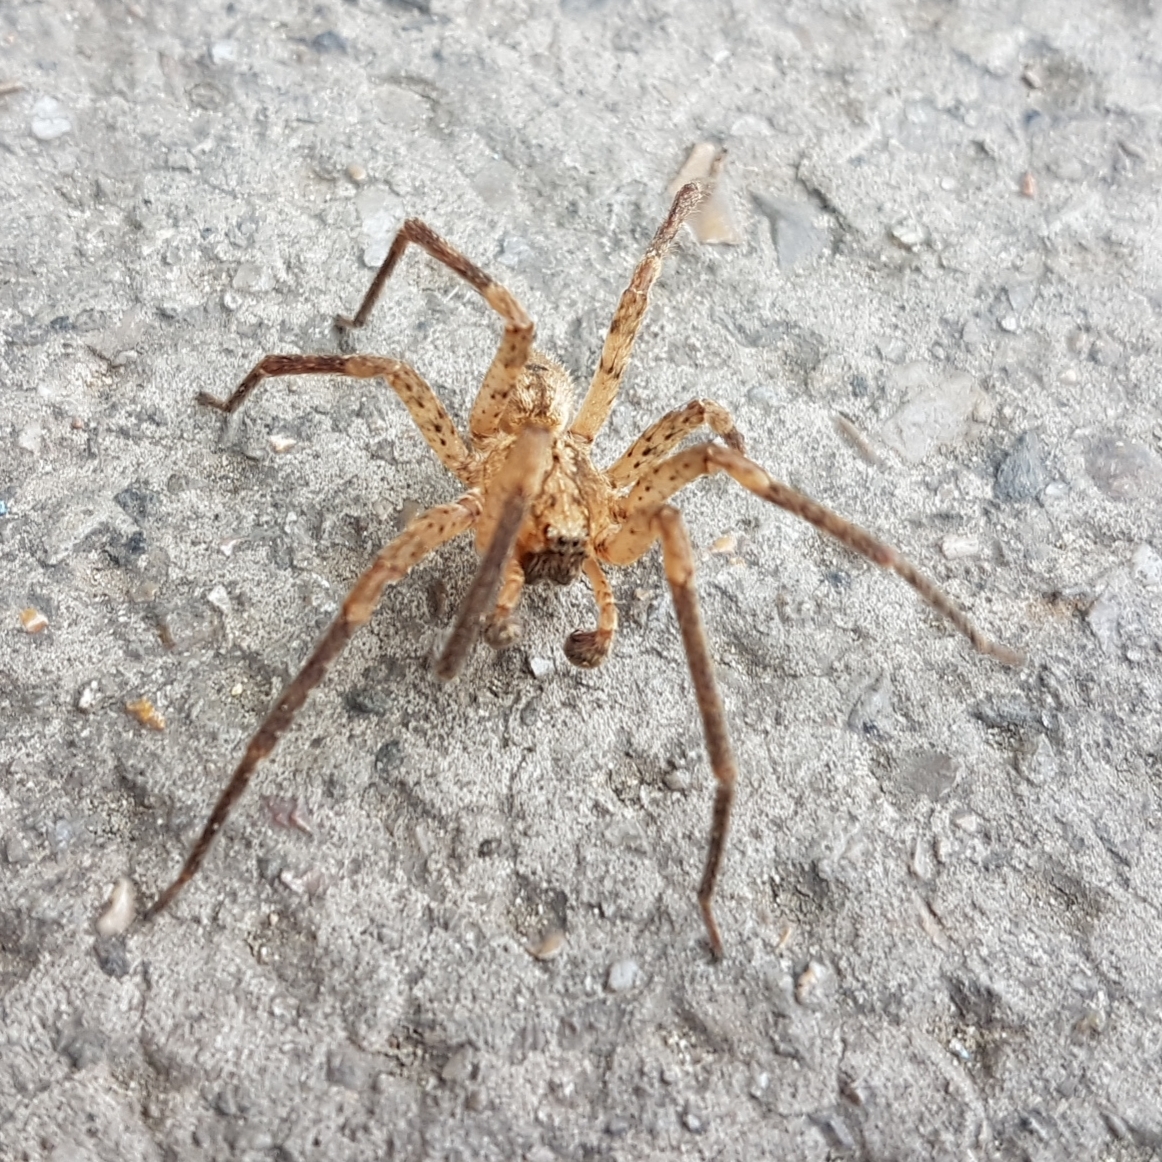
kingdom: Animalia
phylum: Arthropoda
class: Arachnida
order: Araneae
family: Zoropsidae
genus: Zoropsis
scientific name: Zoropsis spinimana
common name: Zoropsid spider
